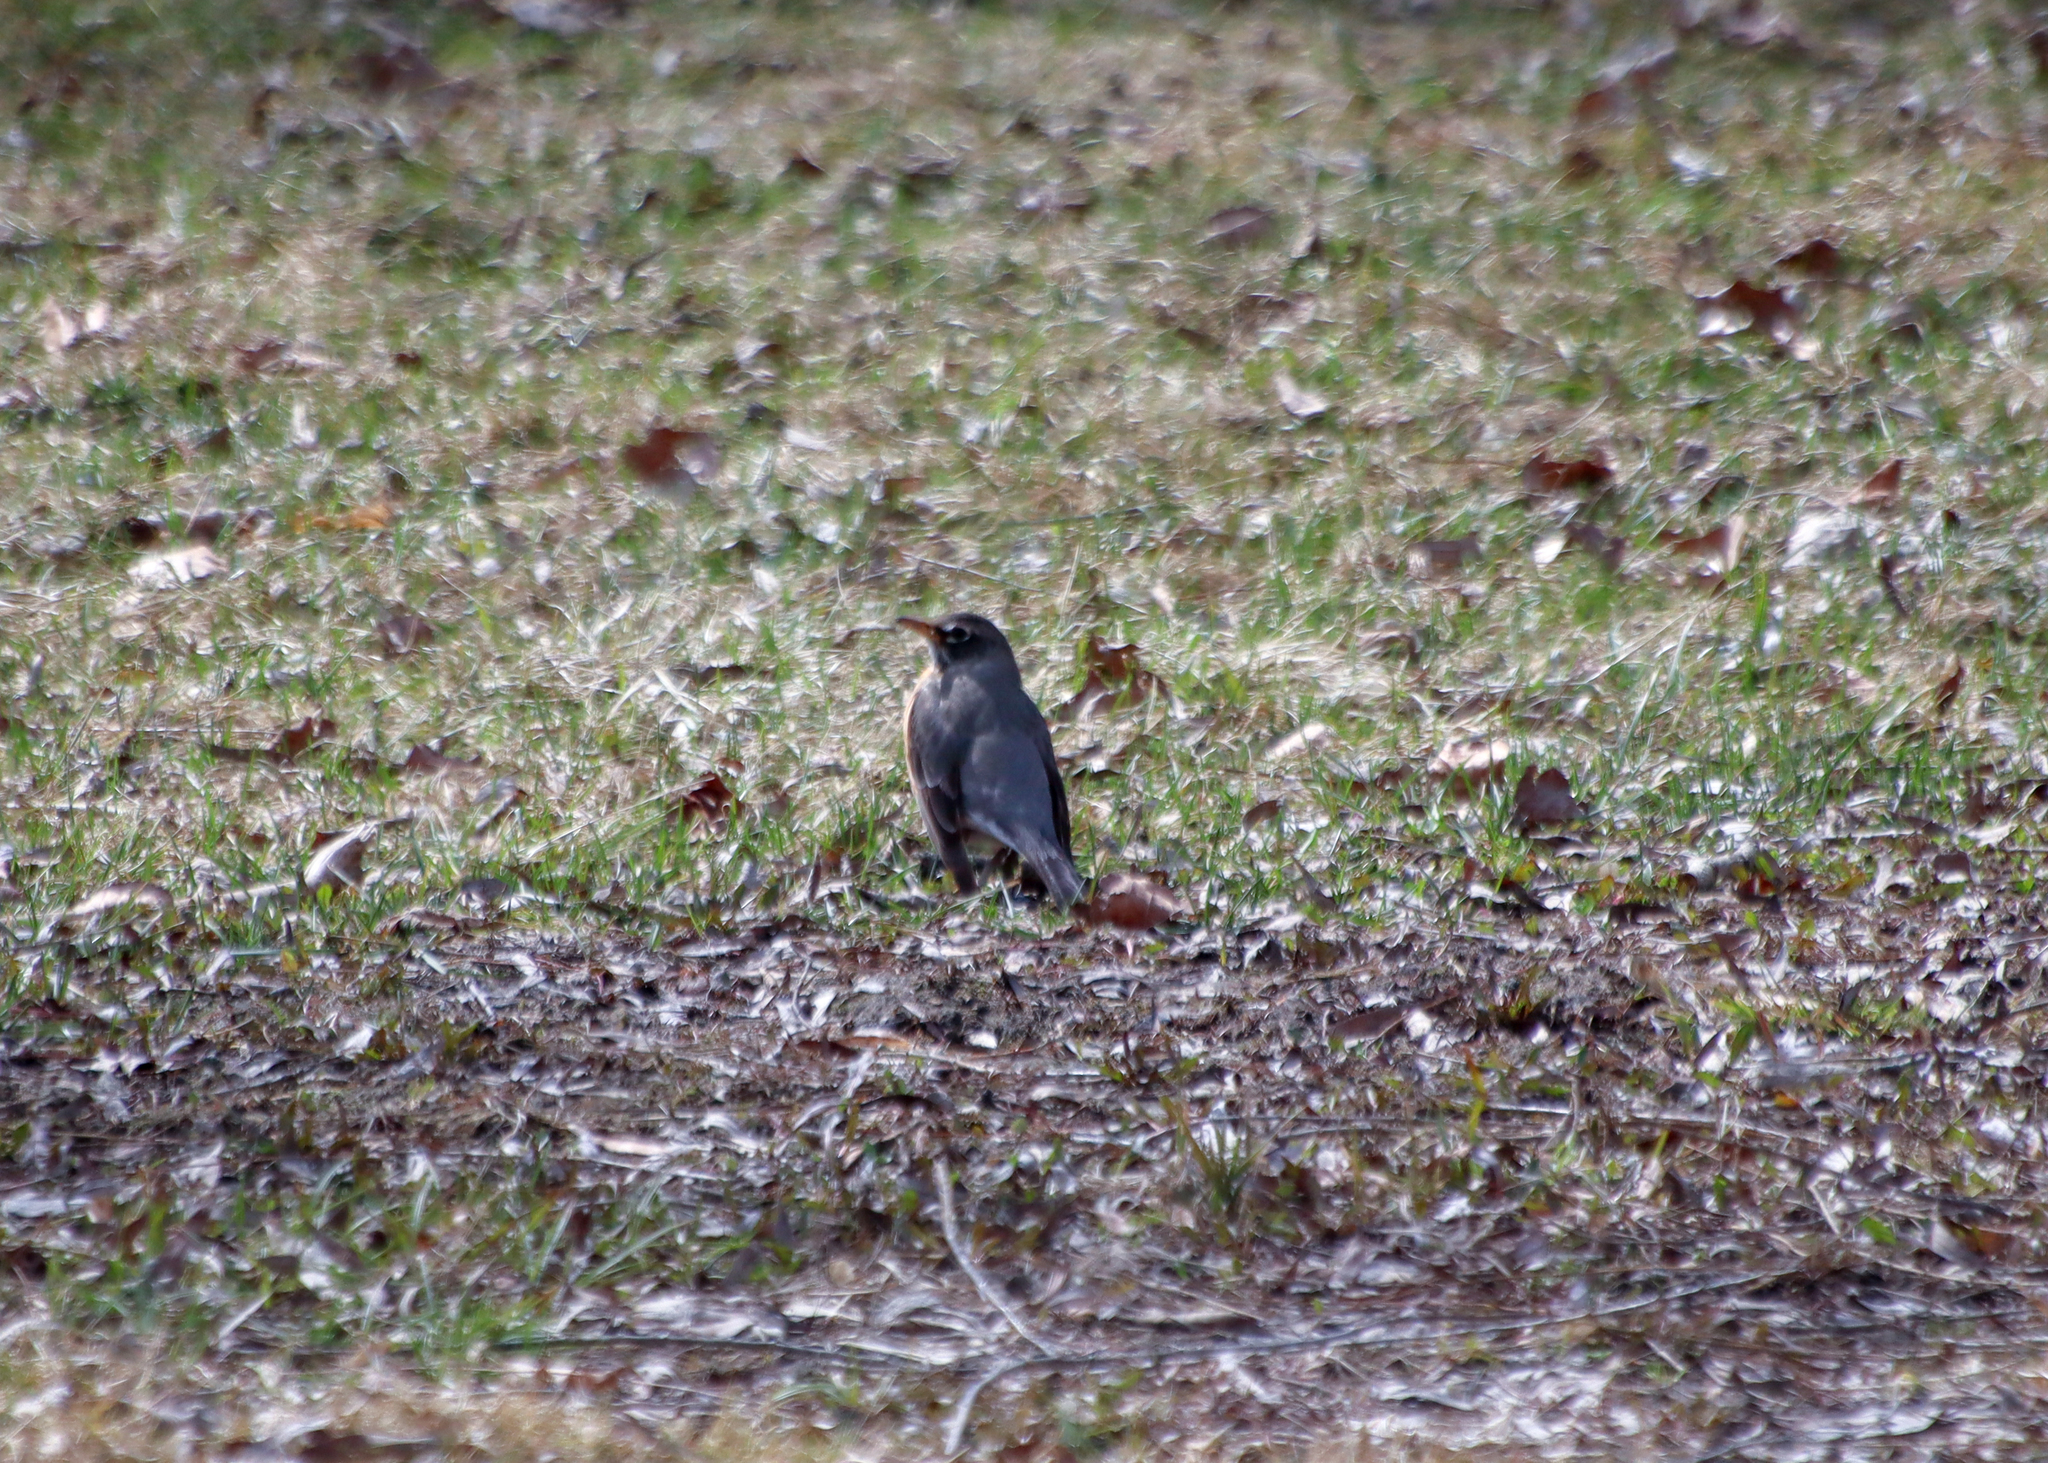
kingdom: Animalia
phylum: Chordata
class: Aves
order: Passeriformes
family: Turdidae
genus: Turdus
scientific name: Turdus migratorius
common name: American robin
